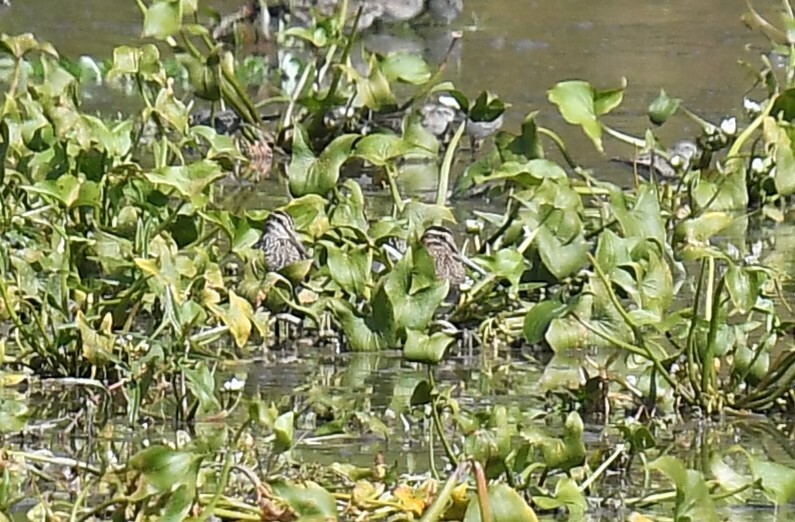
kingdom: Animalia
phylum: Chordata
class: Aves
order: Charadriiformes
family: Scolopacidae
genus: Gallinago
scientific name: Gallinago delicata
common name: Wilson's snipe
